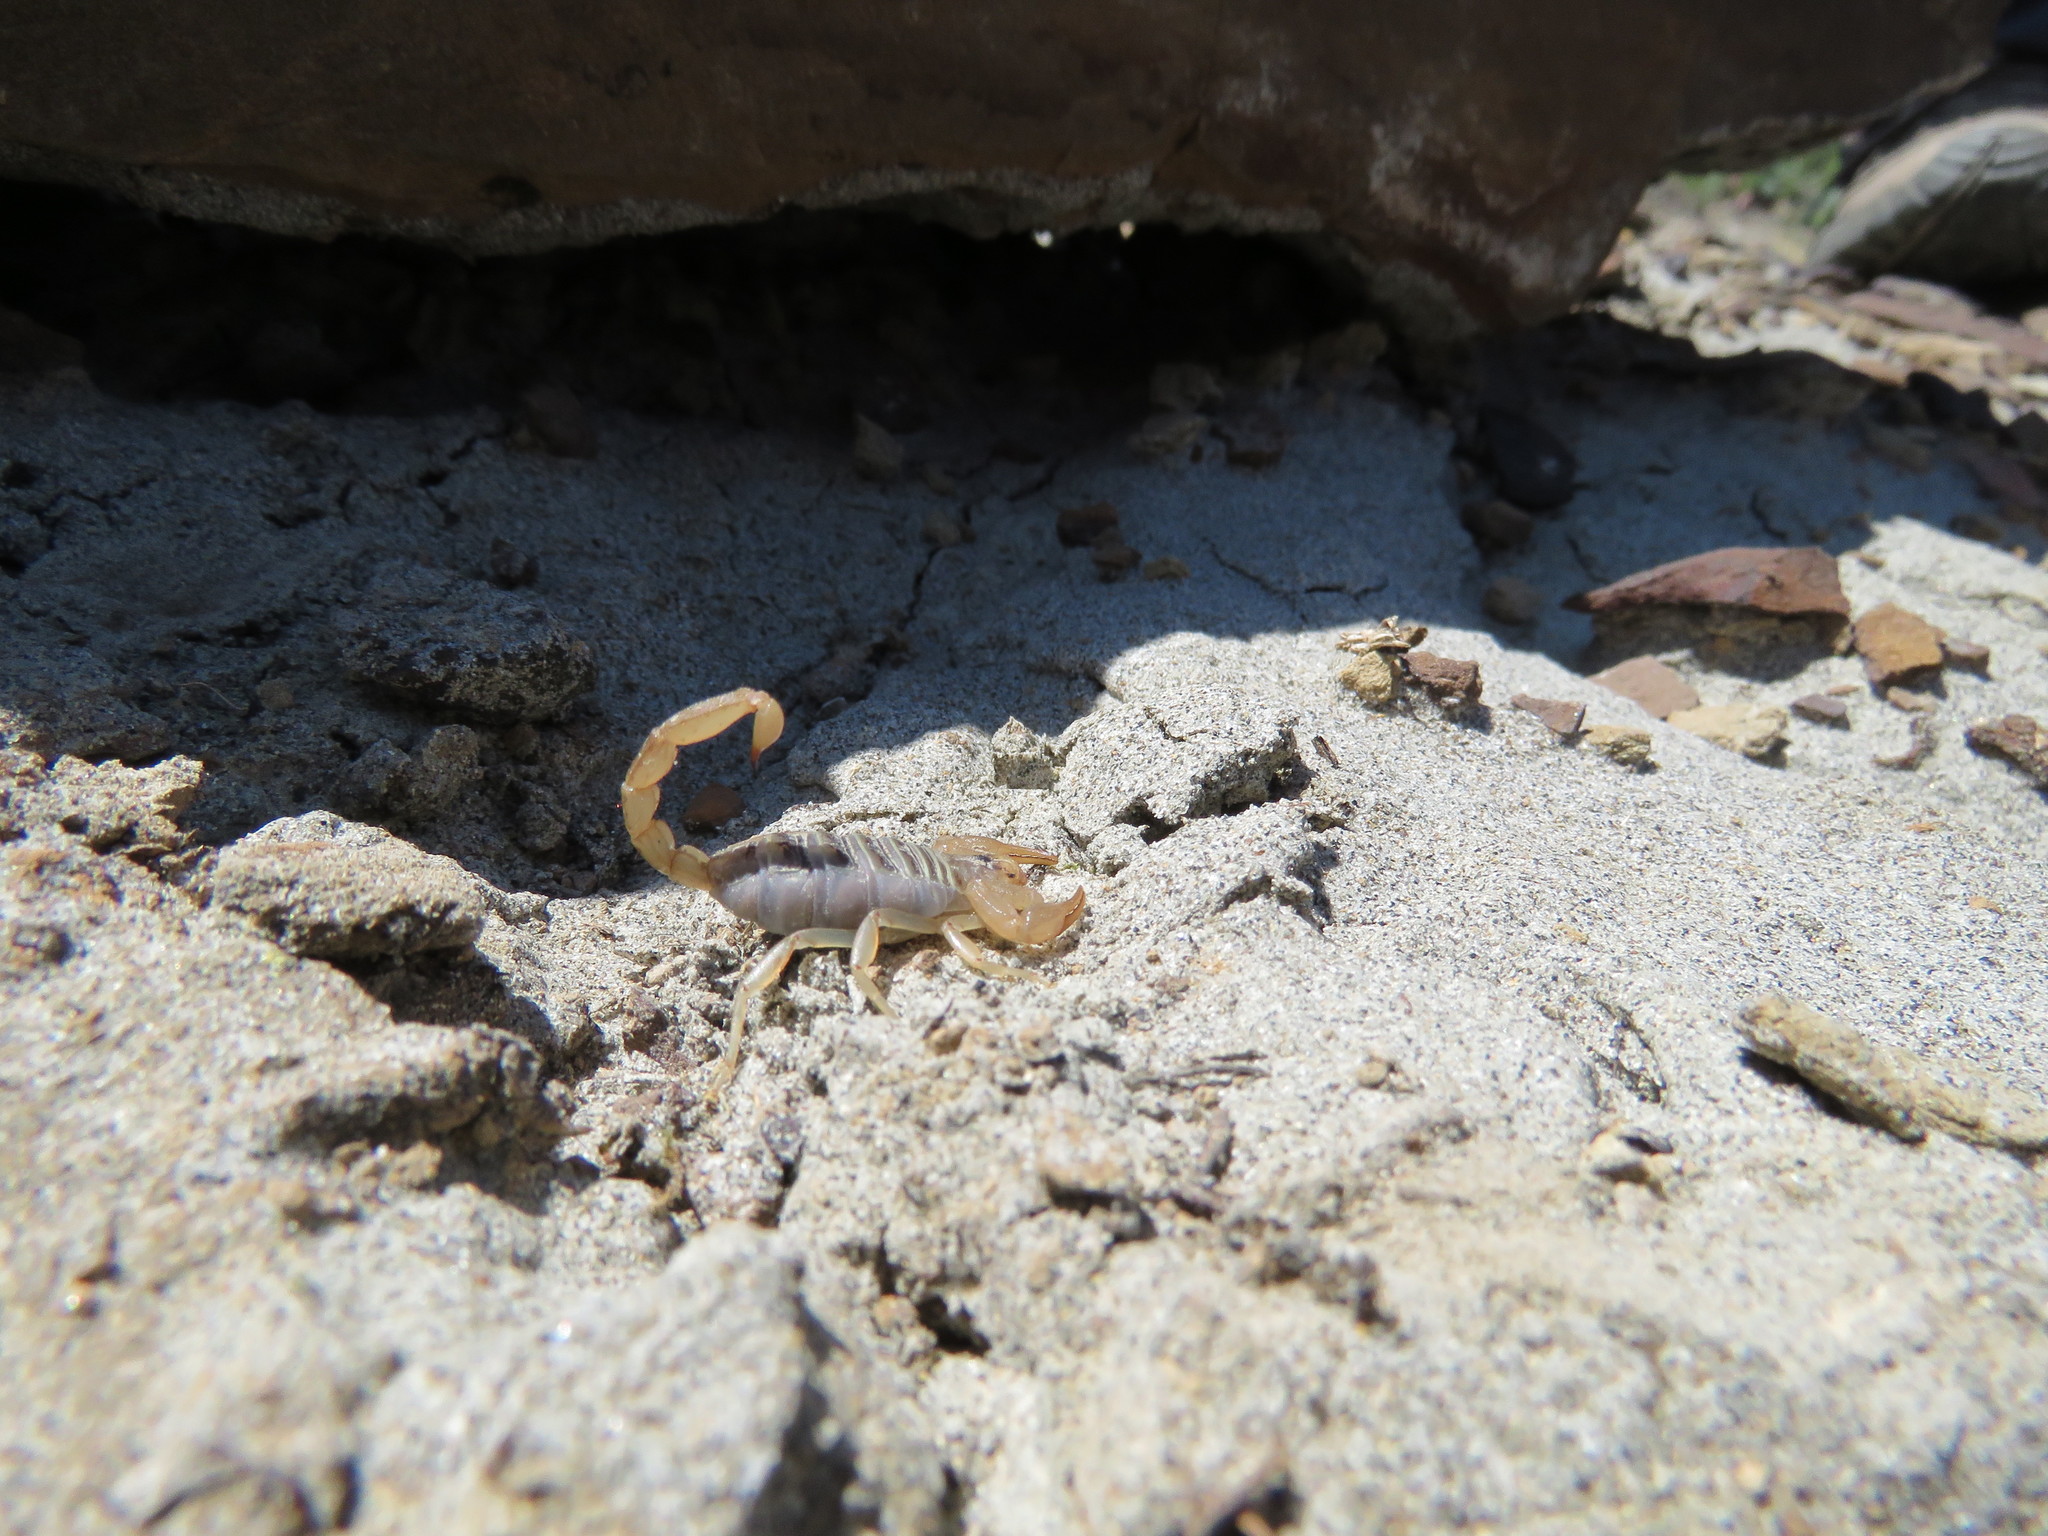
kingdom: Animalia
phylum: Arthropoda
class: Arachnida
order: Scorpiones
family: Vaejovidae
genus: Paruroctonus
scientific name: Paruroctonus boreus
